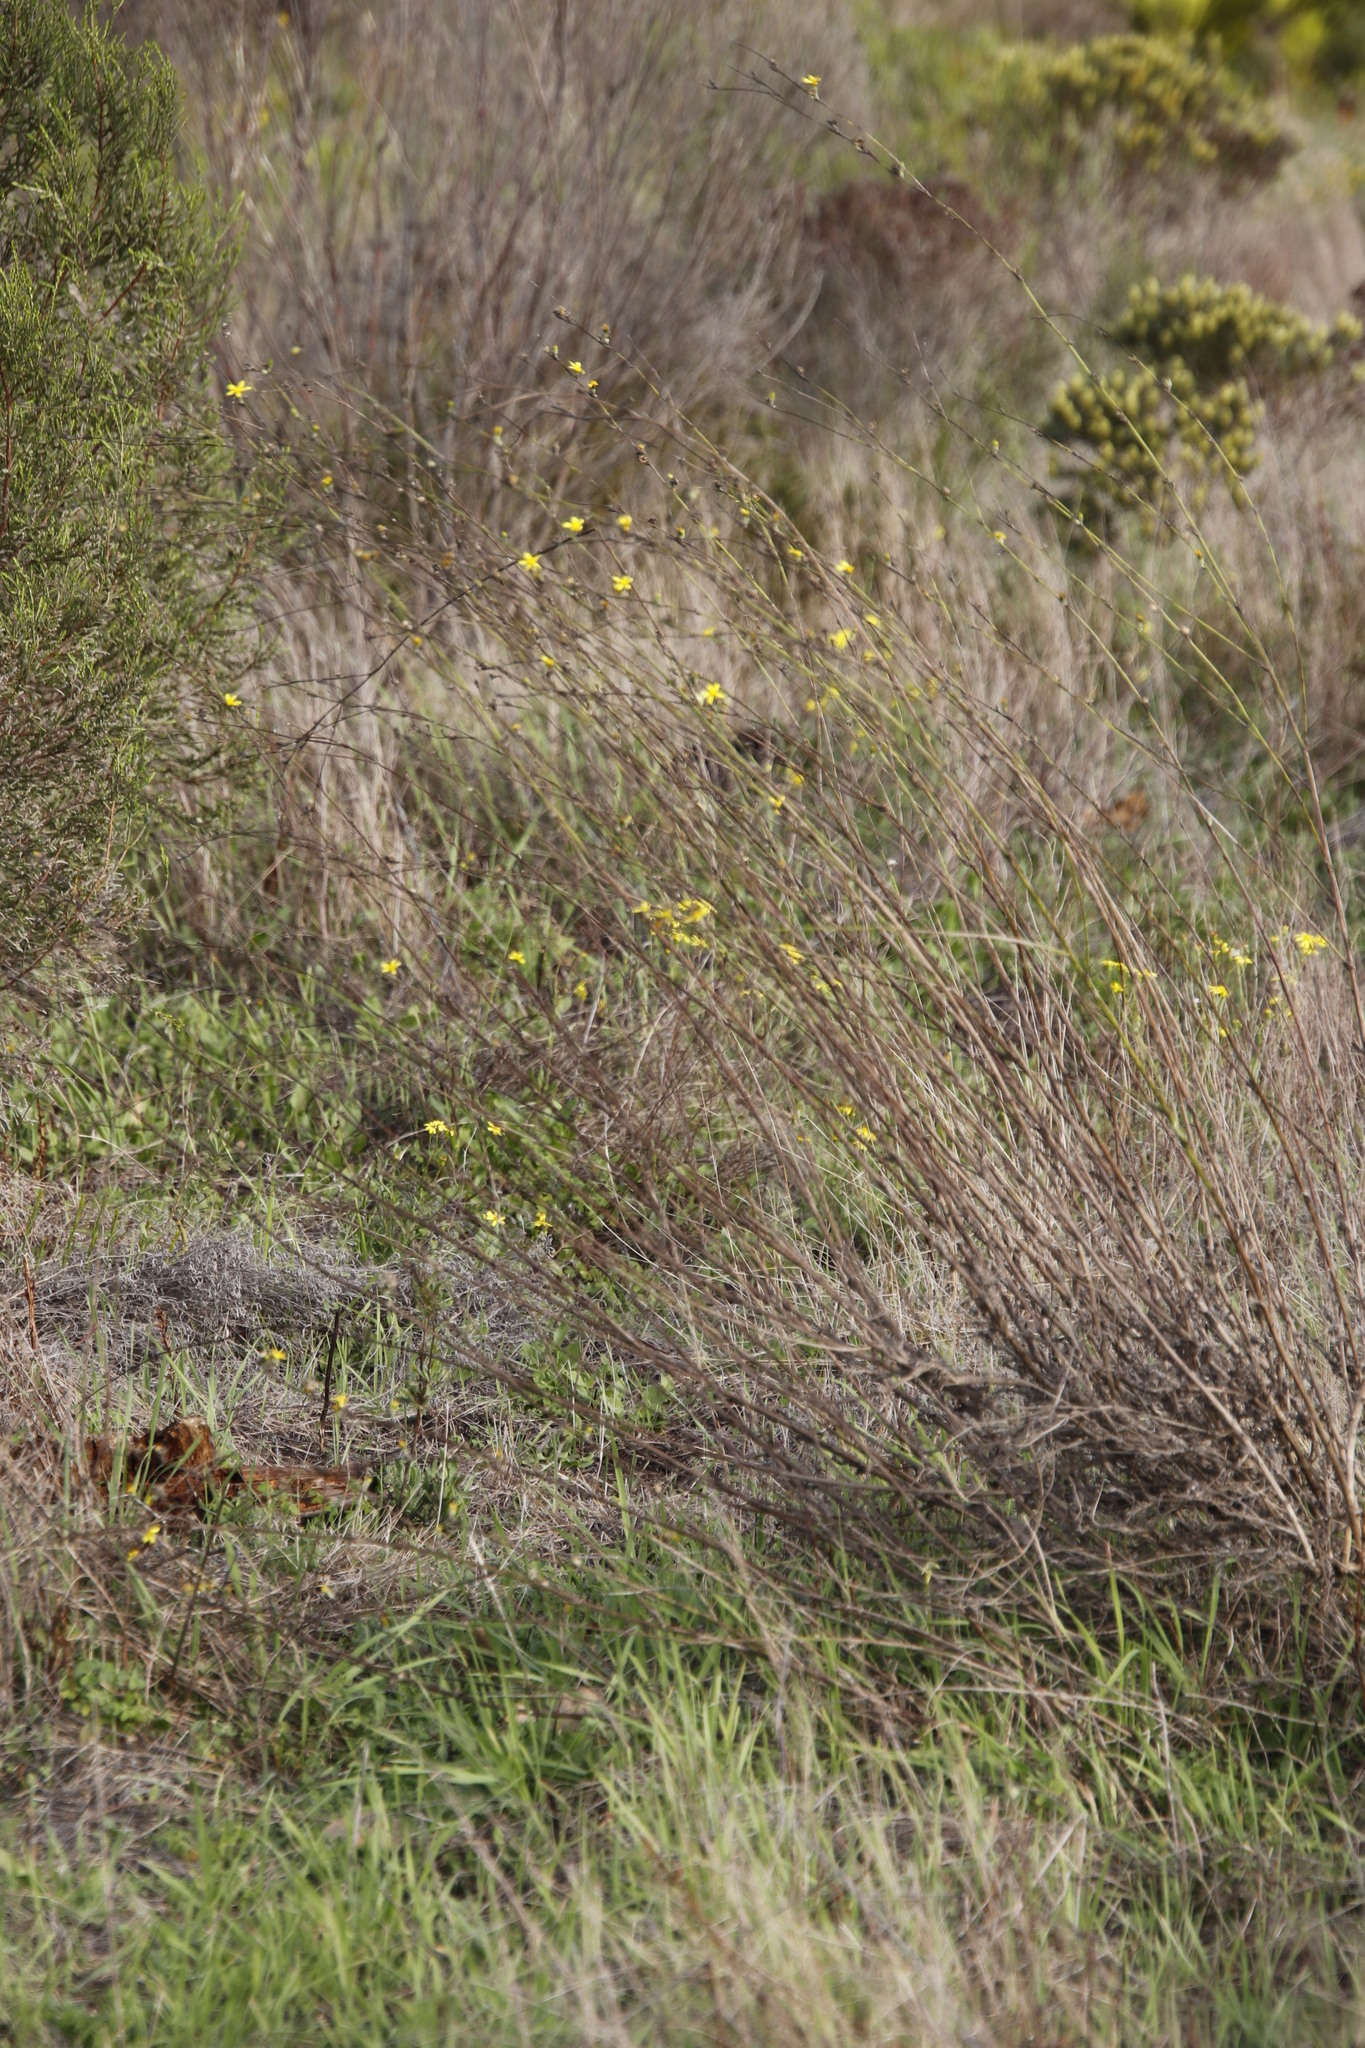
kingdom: Plantae
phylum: Tracheophyta
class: Magnoliopsida
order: Asterales
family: Asteraceae
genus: Senecio
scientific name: Senecio pubigerus
